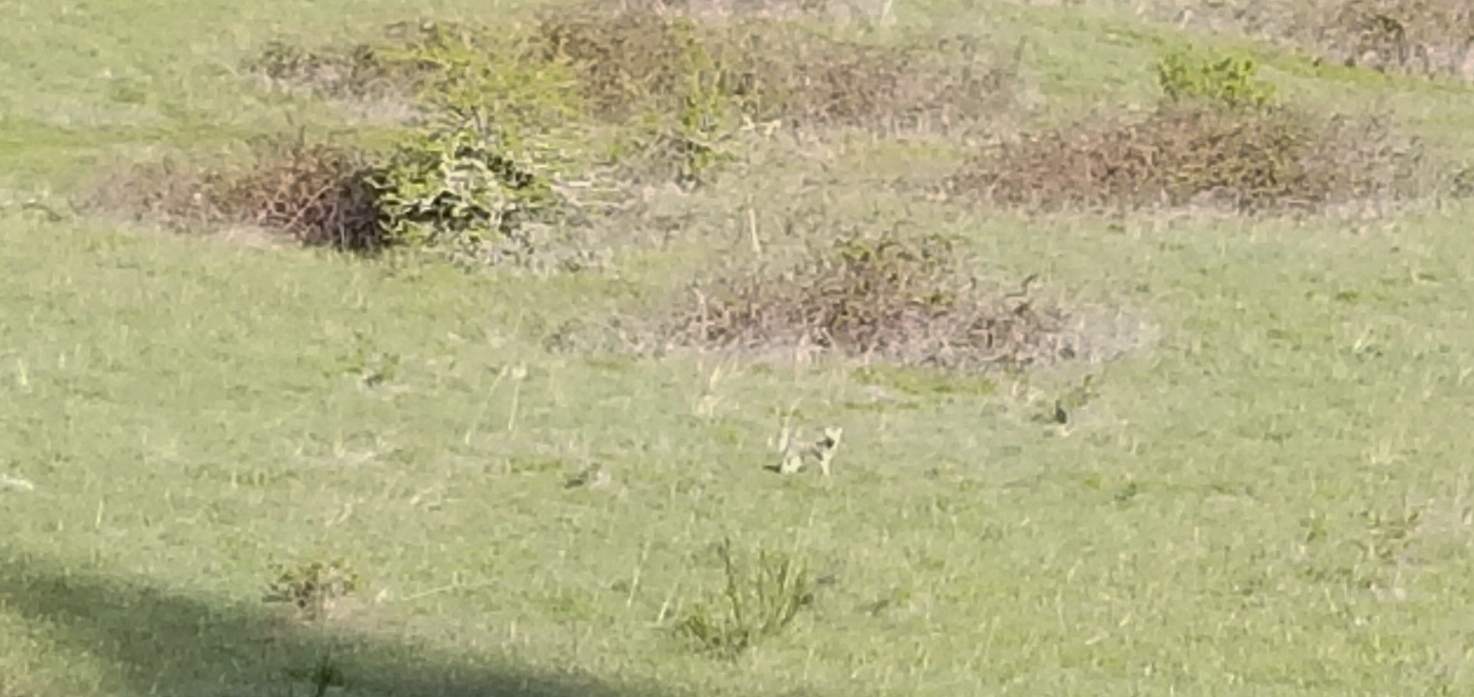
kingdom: Animalia
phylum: Chordata
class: Mammalia
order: Carnivora
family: Canidae
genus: Canis
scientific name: Canis latrans
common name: Coyote
